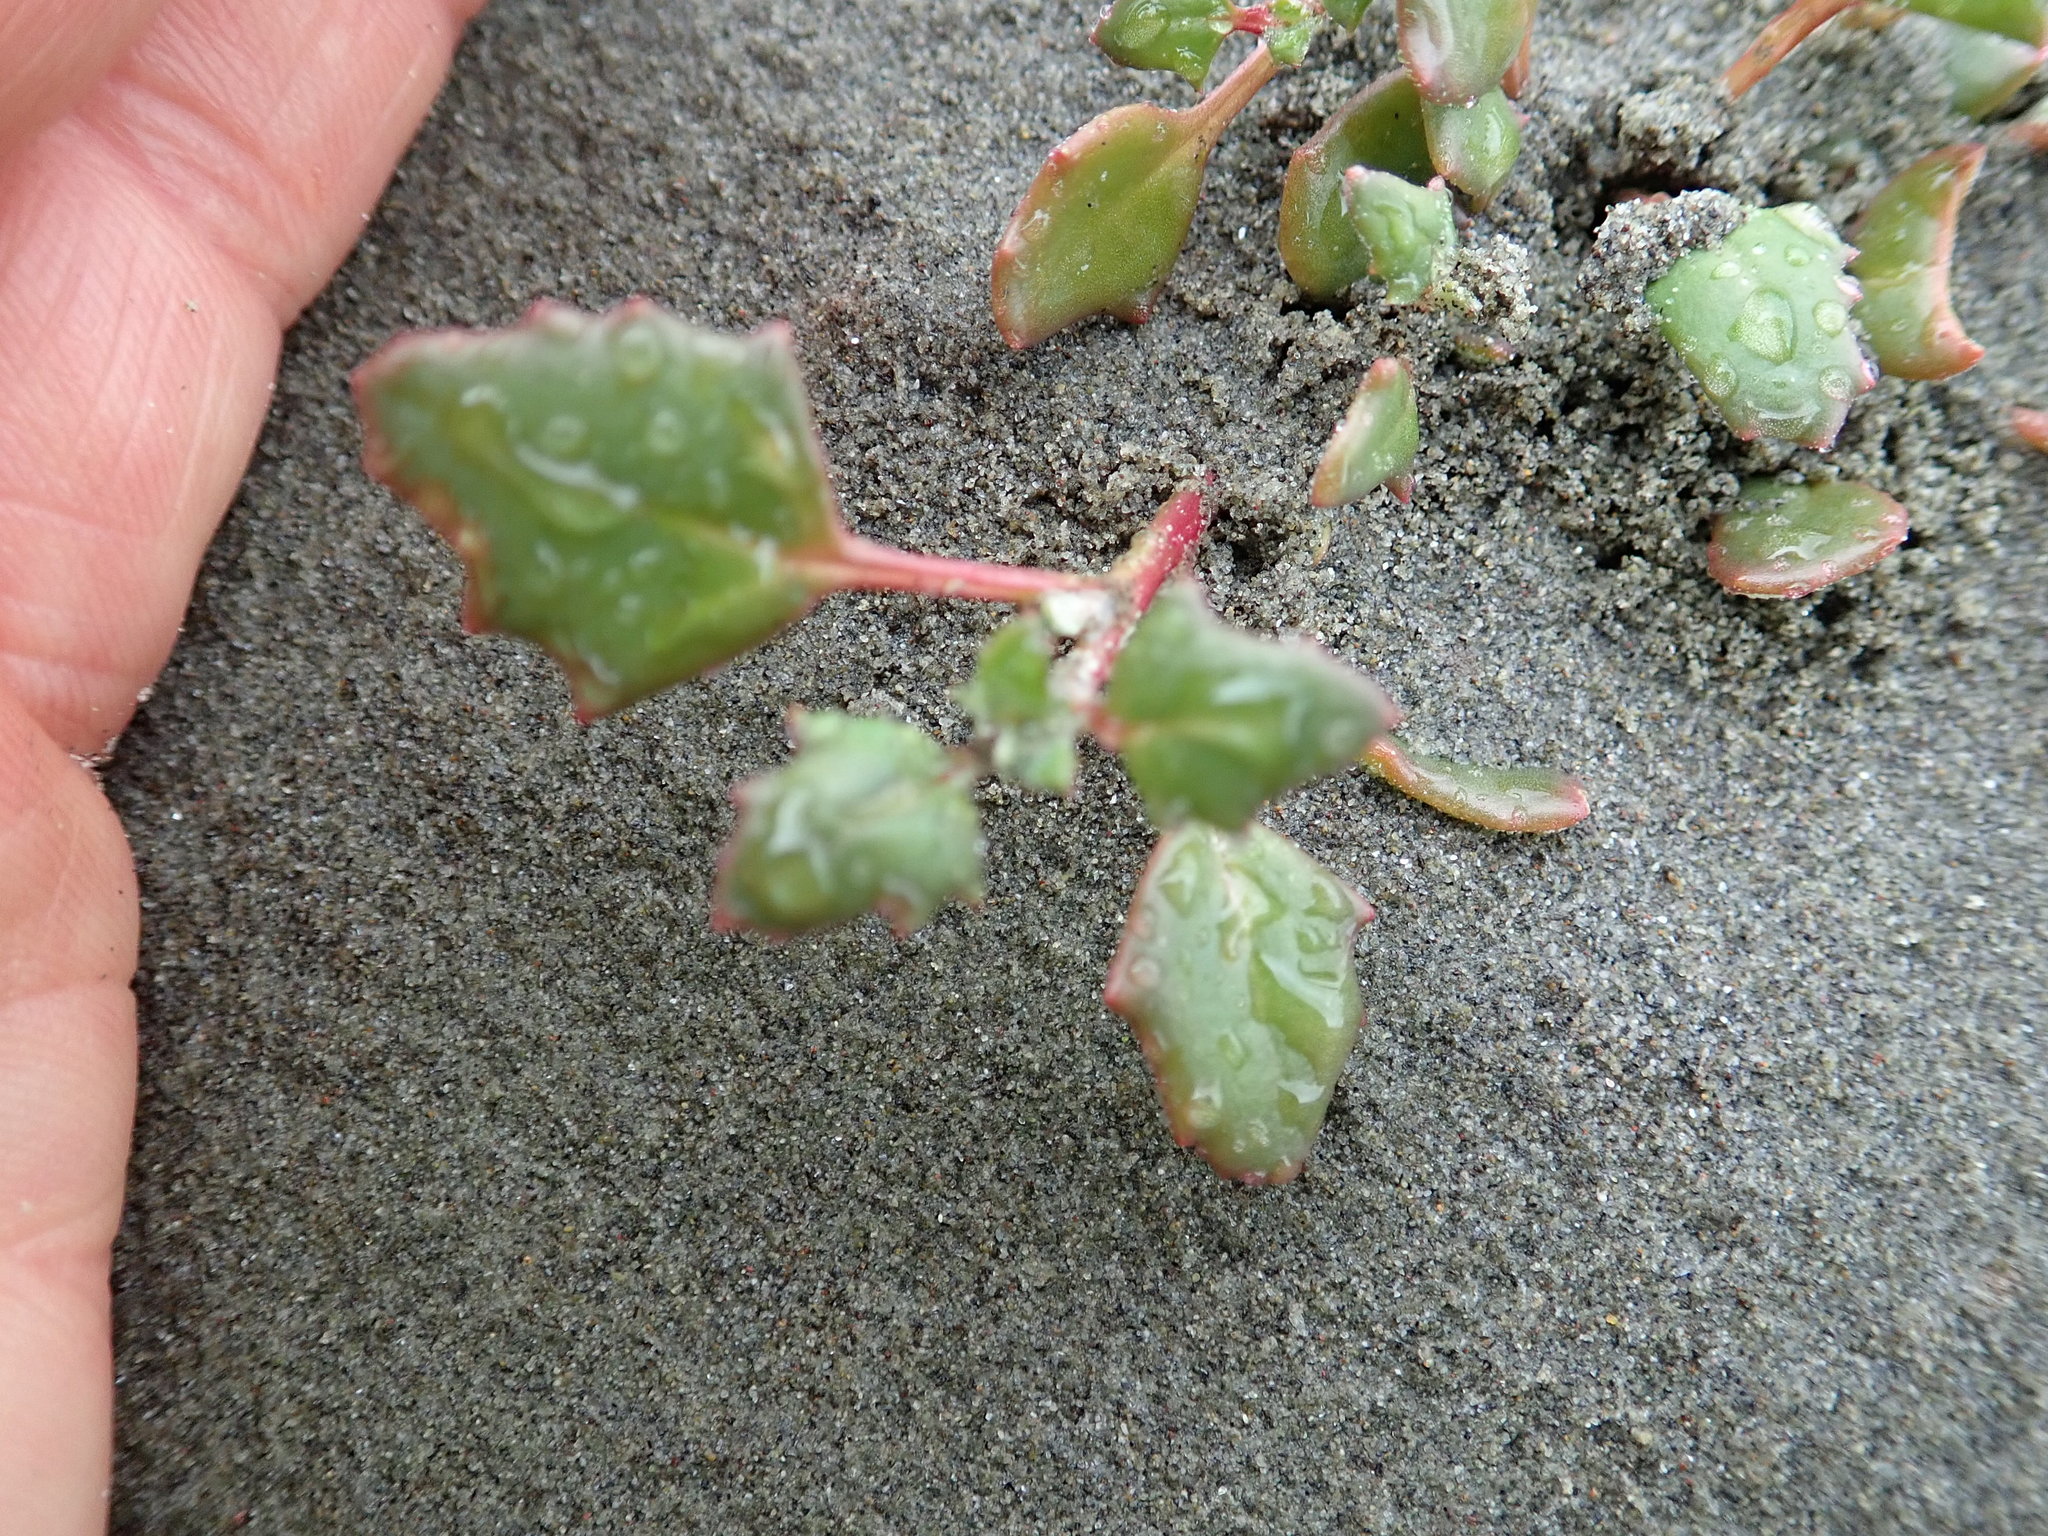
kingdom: Plantae
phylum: Tracheophyta
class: Magnoliopsida
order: Caryophyllales
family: Amaranthaceae
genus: Oxybasis
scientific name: Oxybasis ambigua
